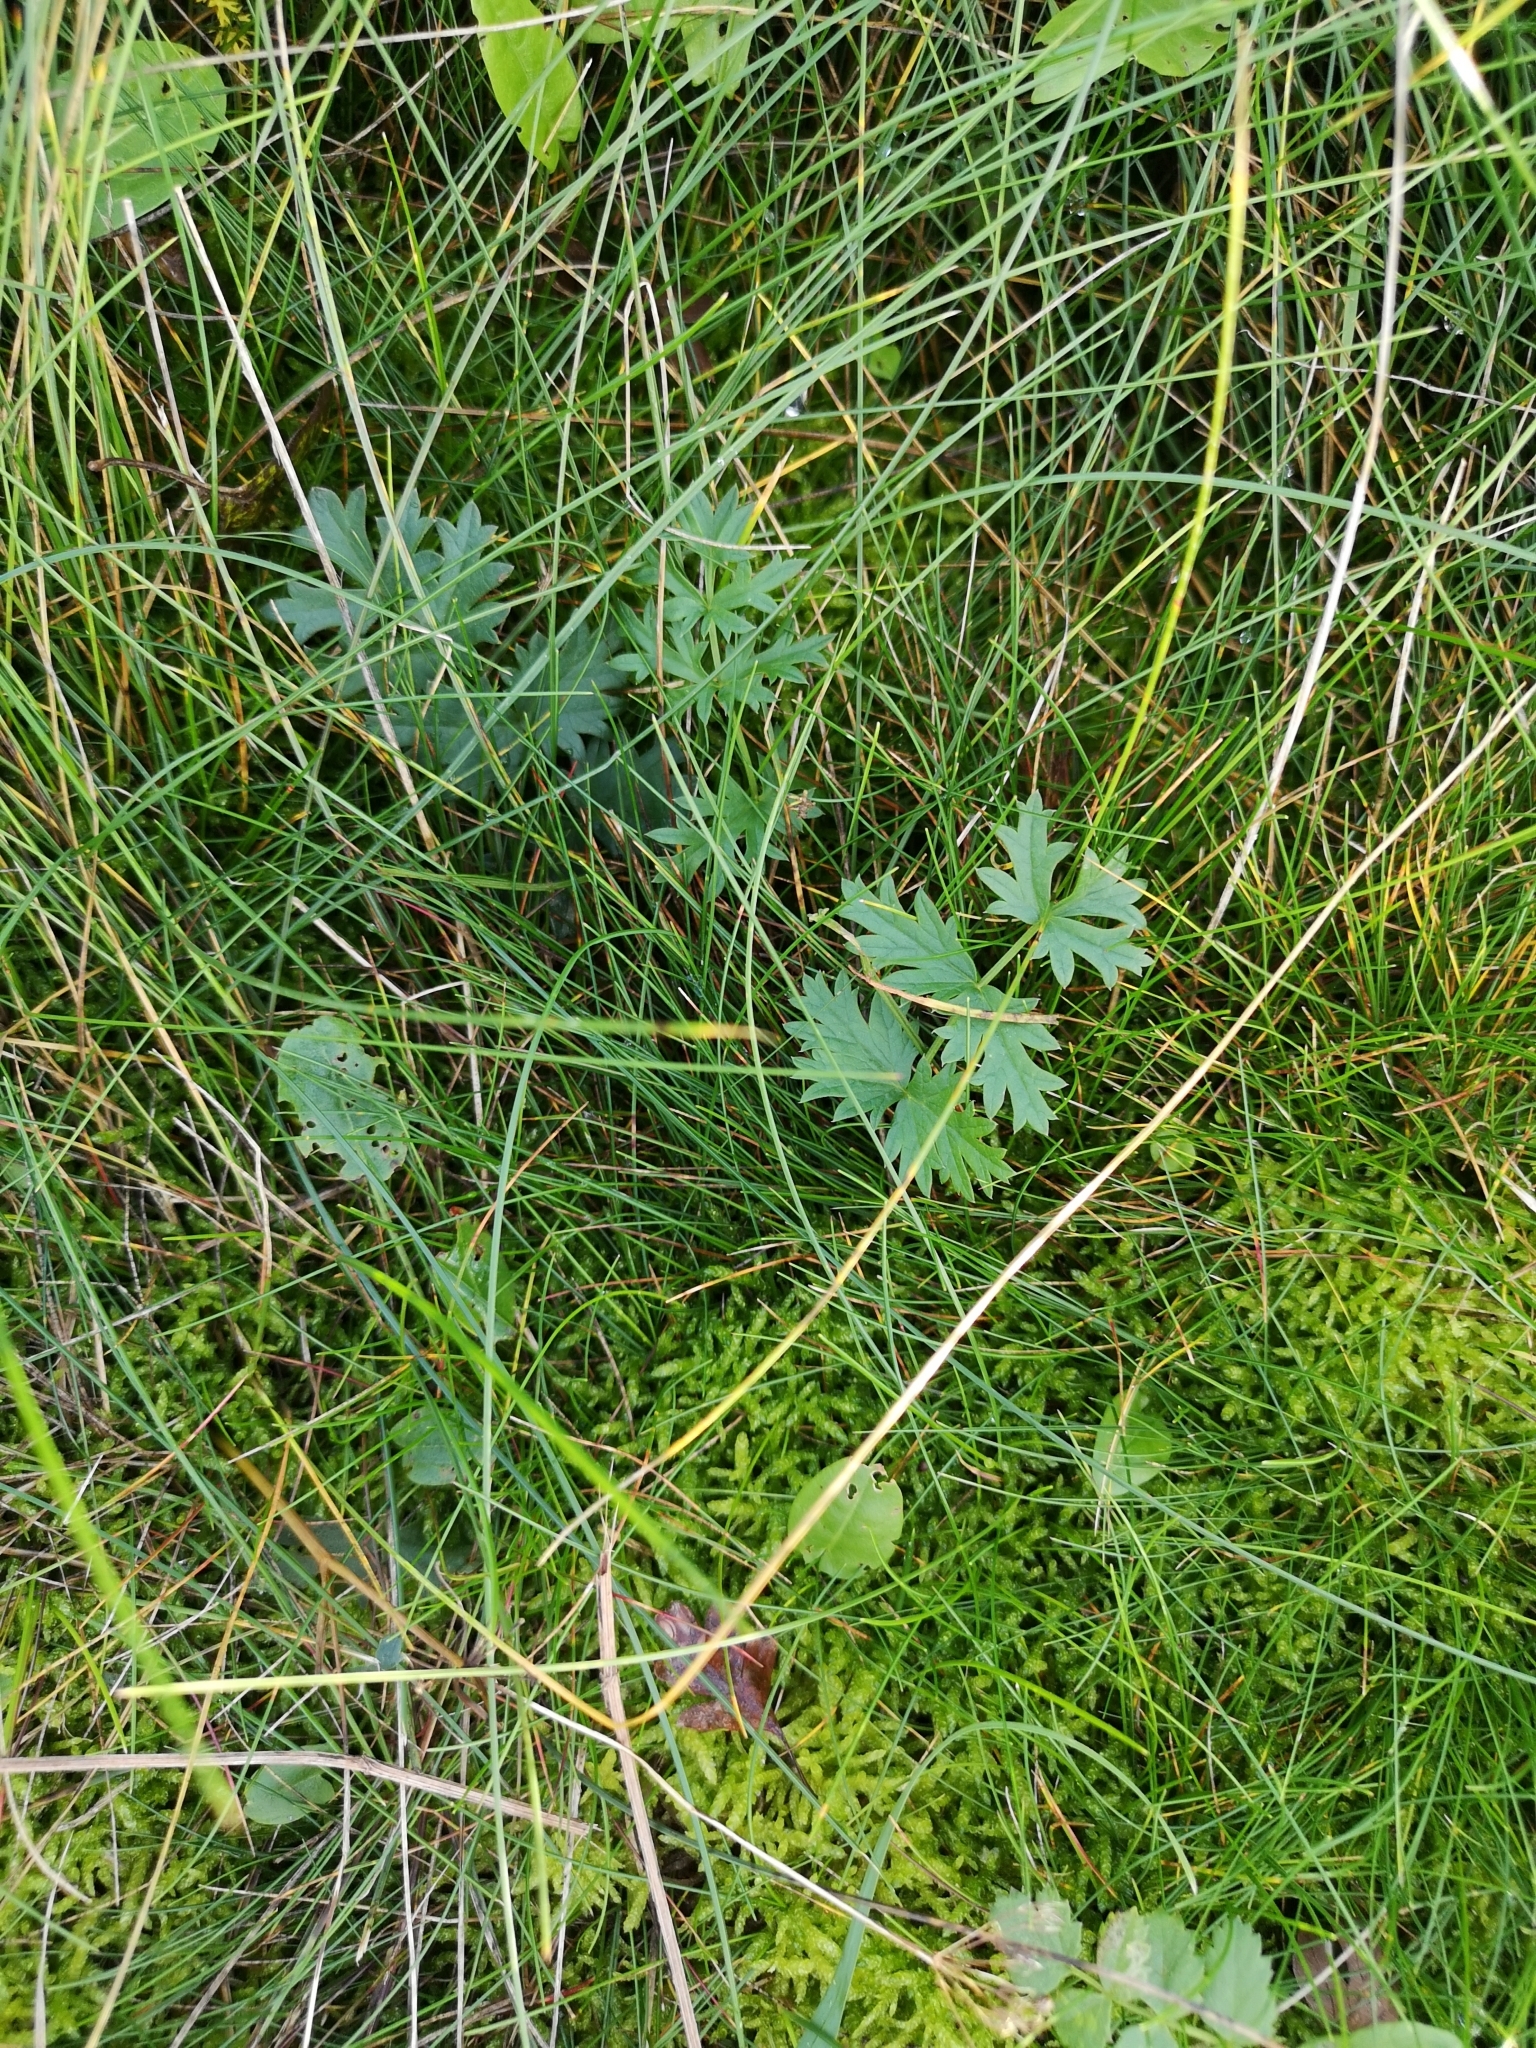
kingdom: Plantae
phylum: Tracheophyta
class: Magnoliopsida
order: Apiales
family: Apiaceae
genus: Pimpinella
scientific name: Pimpinella saxifraga
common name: Burnet-saxifrage
